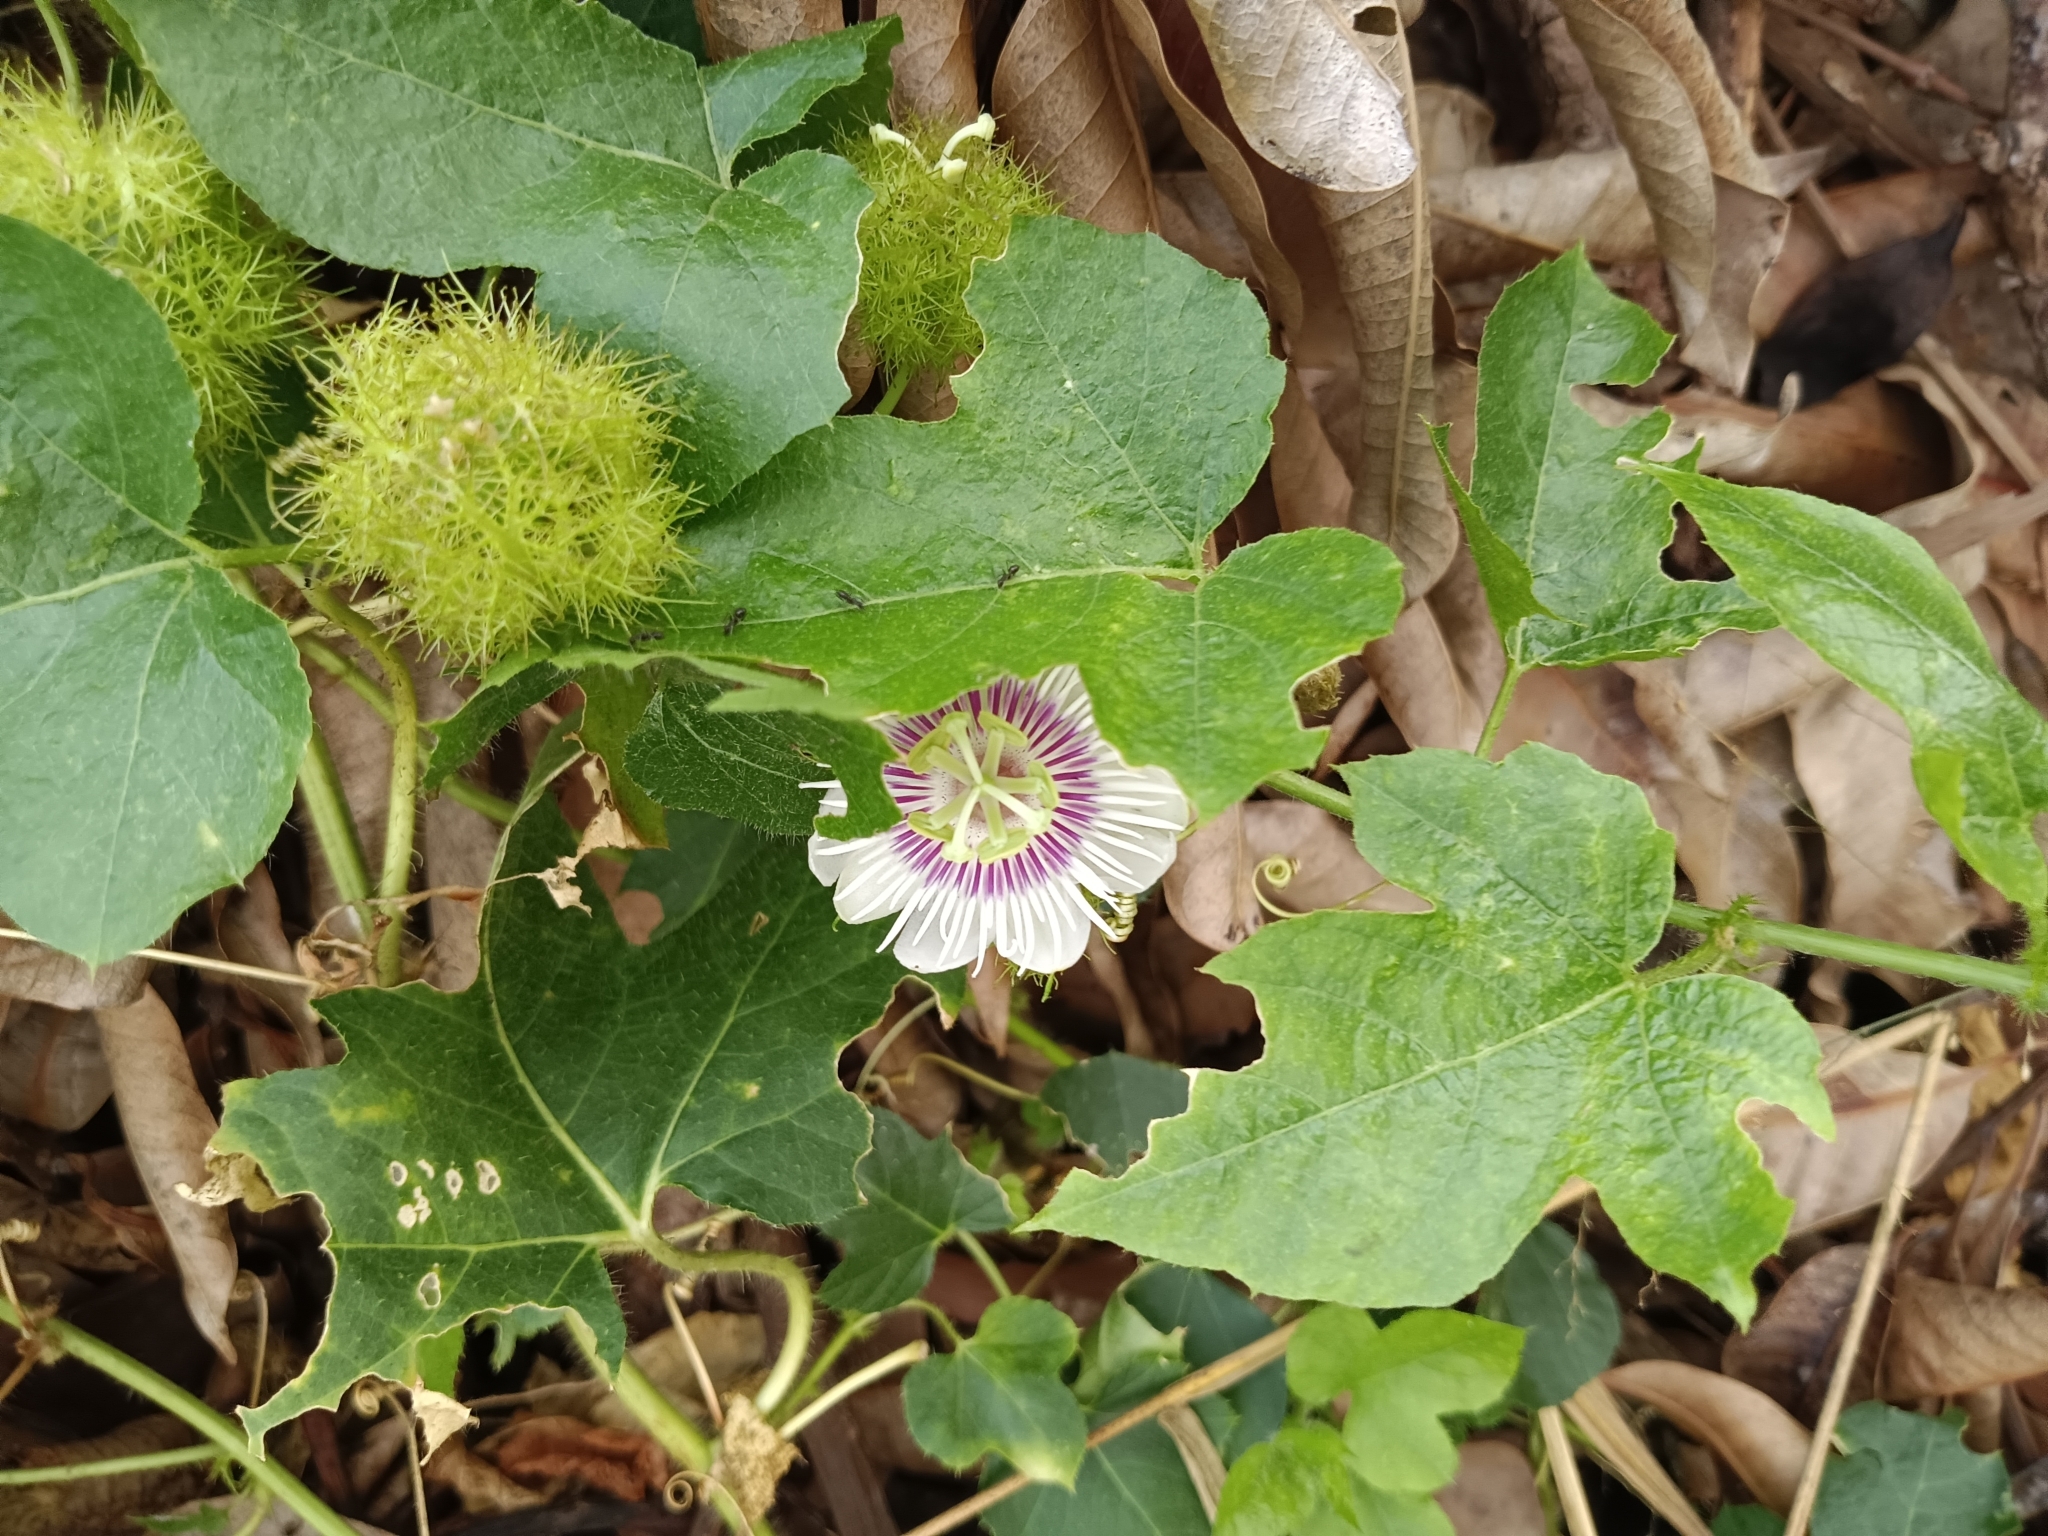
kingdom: Plantae
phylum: Tracheophyta
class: Magnoliopsida
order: Malpighiales
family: Passifloraceae
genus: Passiflora
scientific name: Passiflora vesicaria
